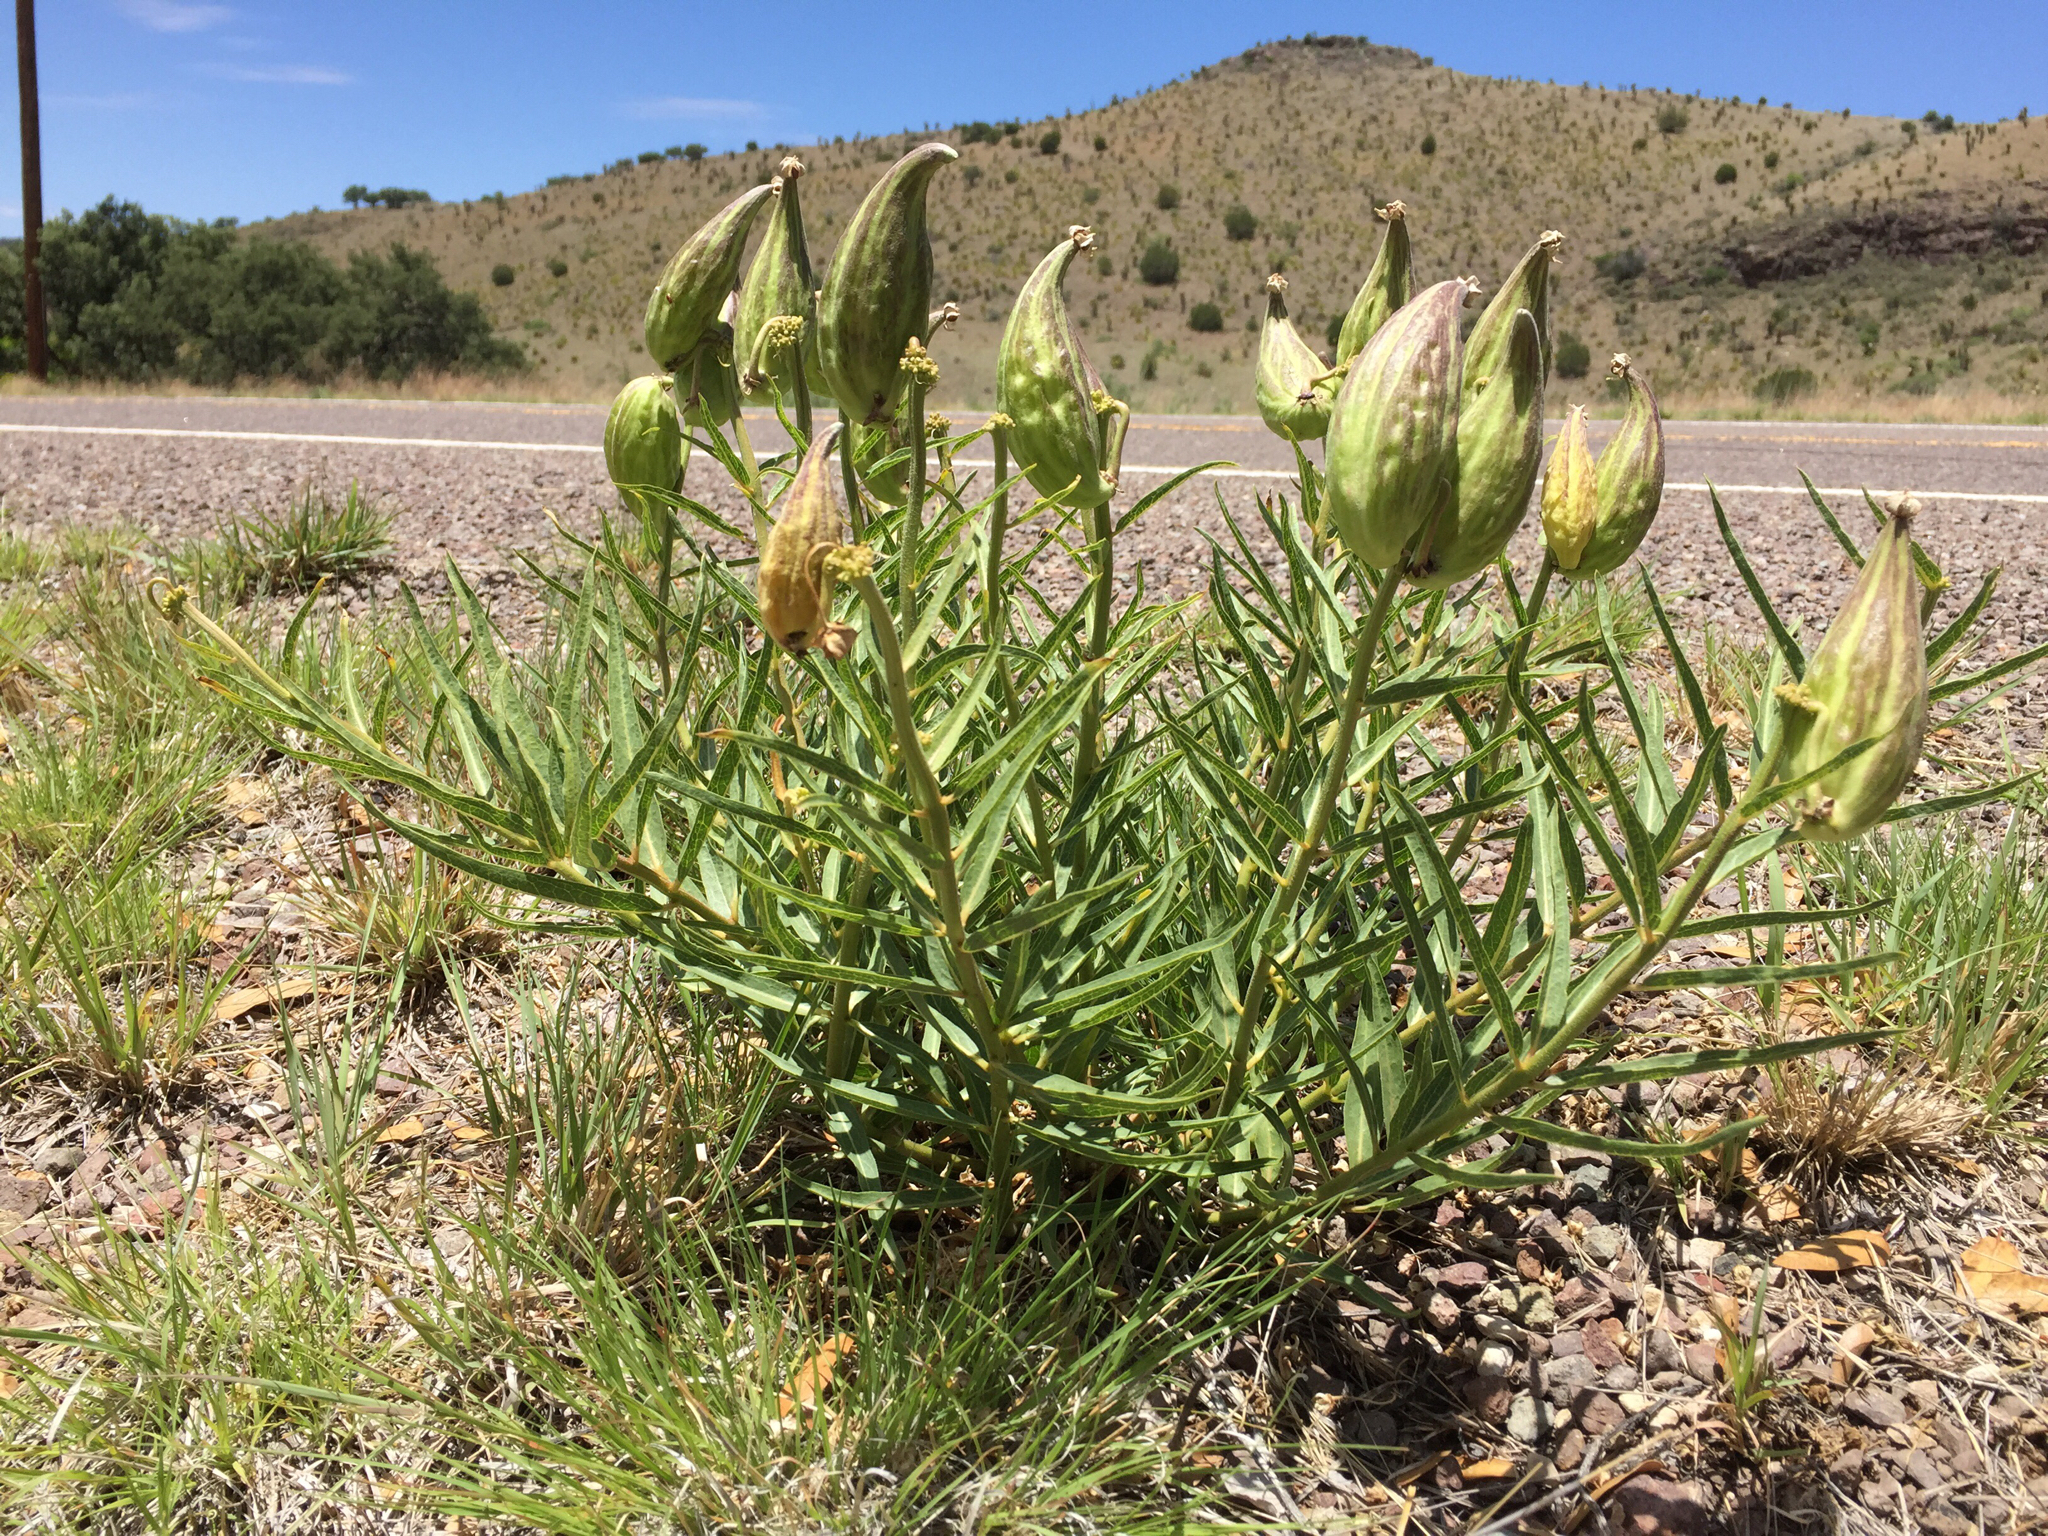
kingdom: Plantae
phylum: Tracheophyta
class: Magnoliopsida
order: Gentianales
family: Apocynaceae
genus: Asclepias
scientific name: Asclepias asperula
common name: Antelope horns
